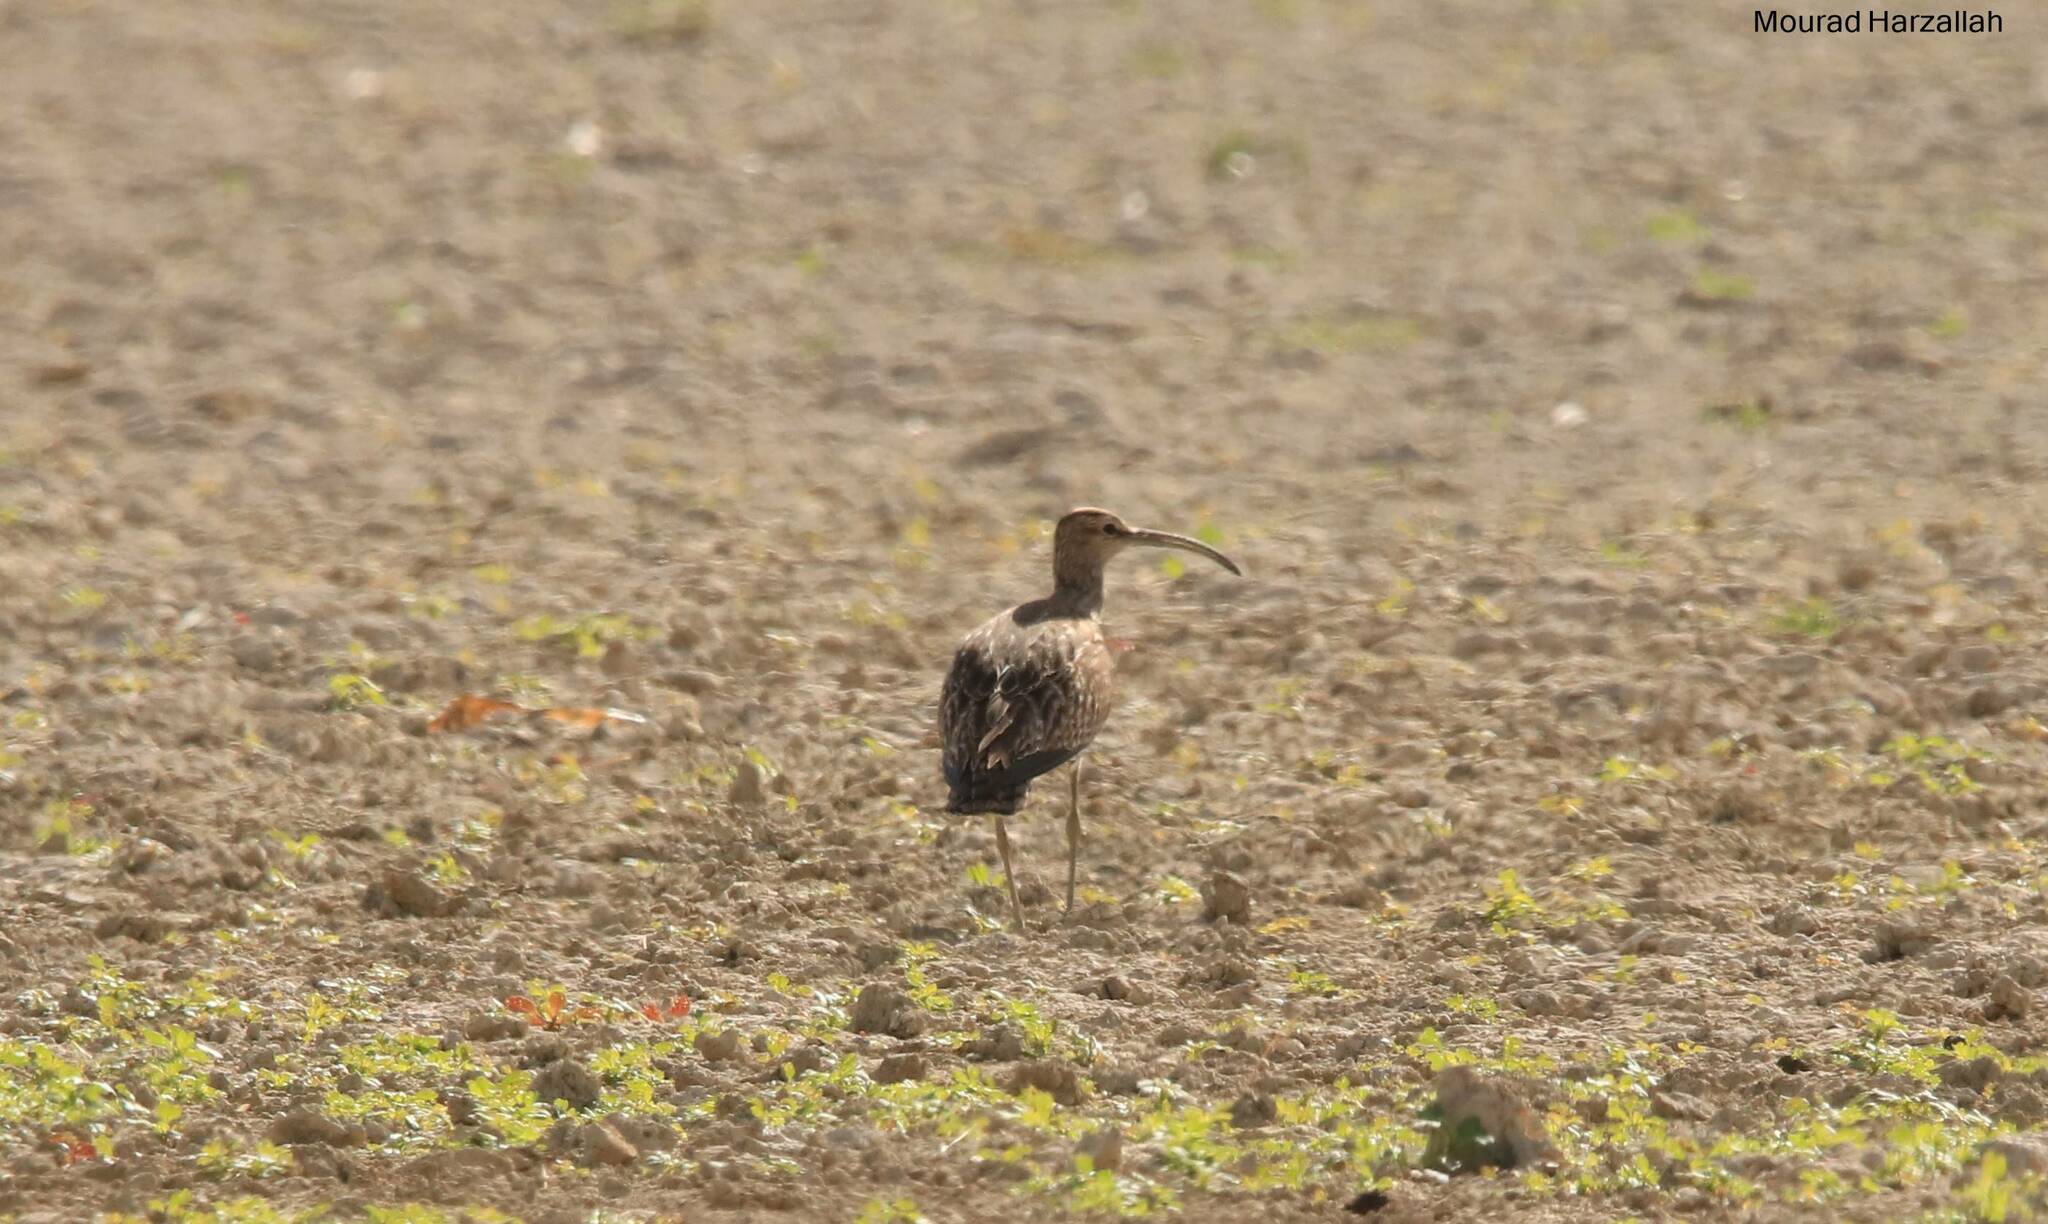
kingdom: Animalia
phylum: Chordata
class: Aves
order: Charadriiformes
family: Scolopacidae
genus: Numenius
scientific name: Numenius phaeopus
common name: Whimbrel
